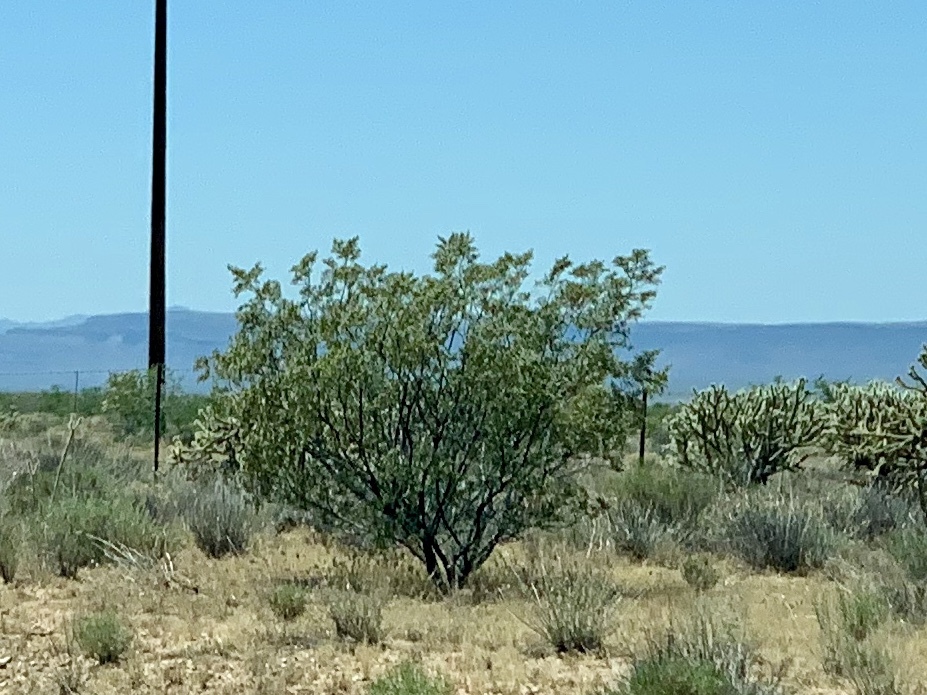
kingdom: Plantae
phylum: Tracheophyta
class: Magnoliopsida
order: Zygophyllales
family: Zygophyllaceae
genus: Larrea
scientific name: Larrea tridentata
